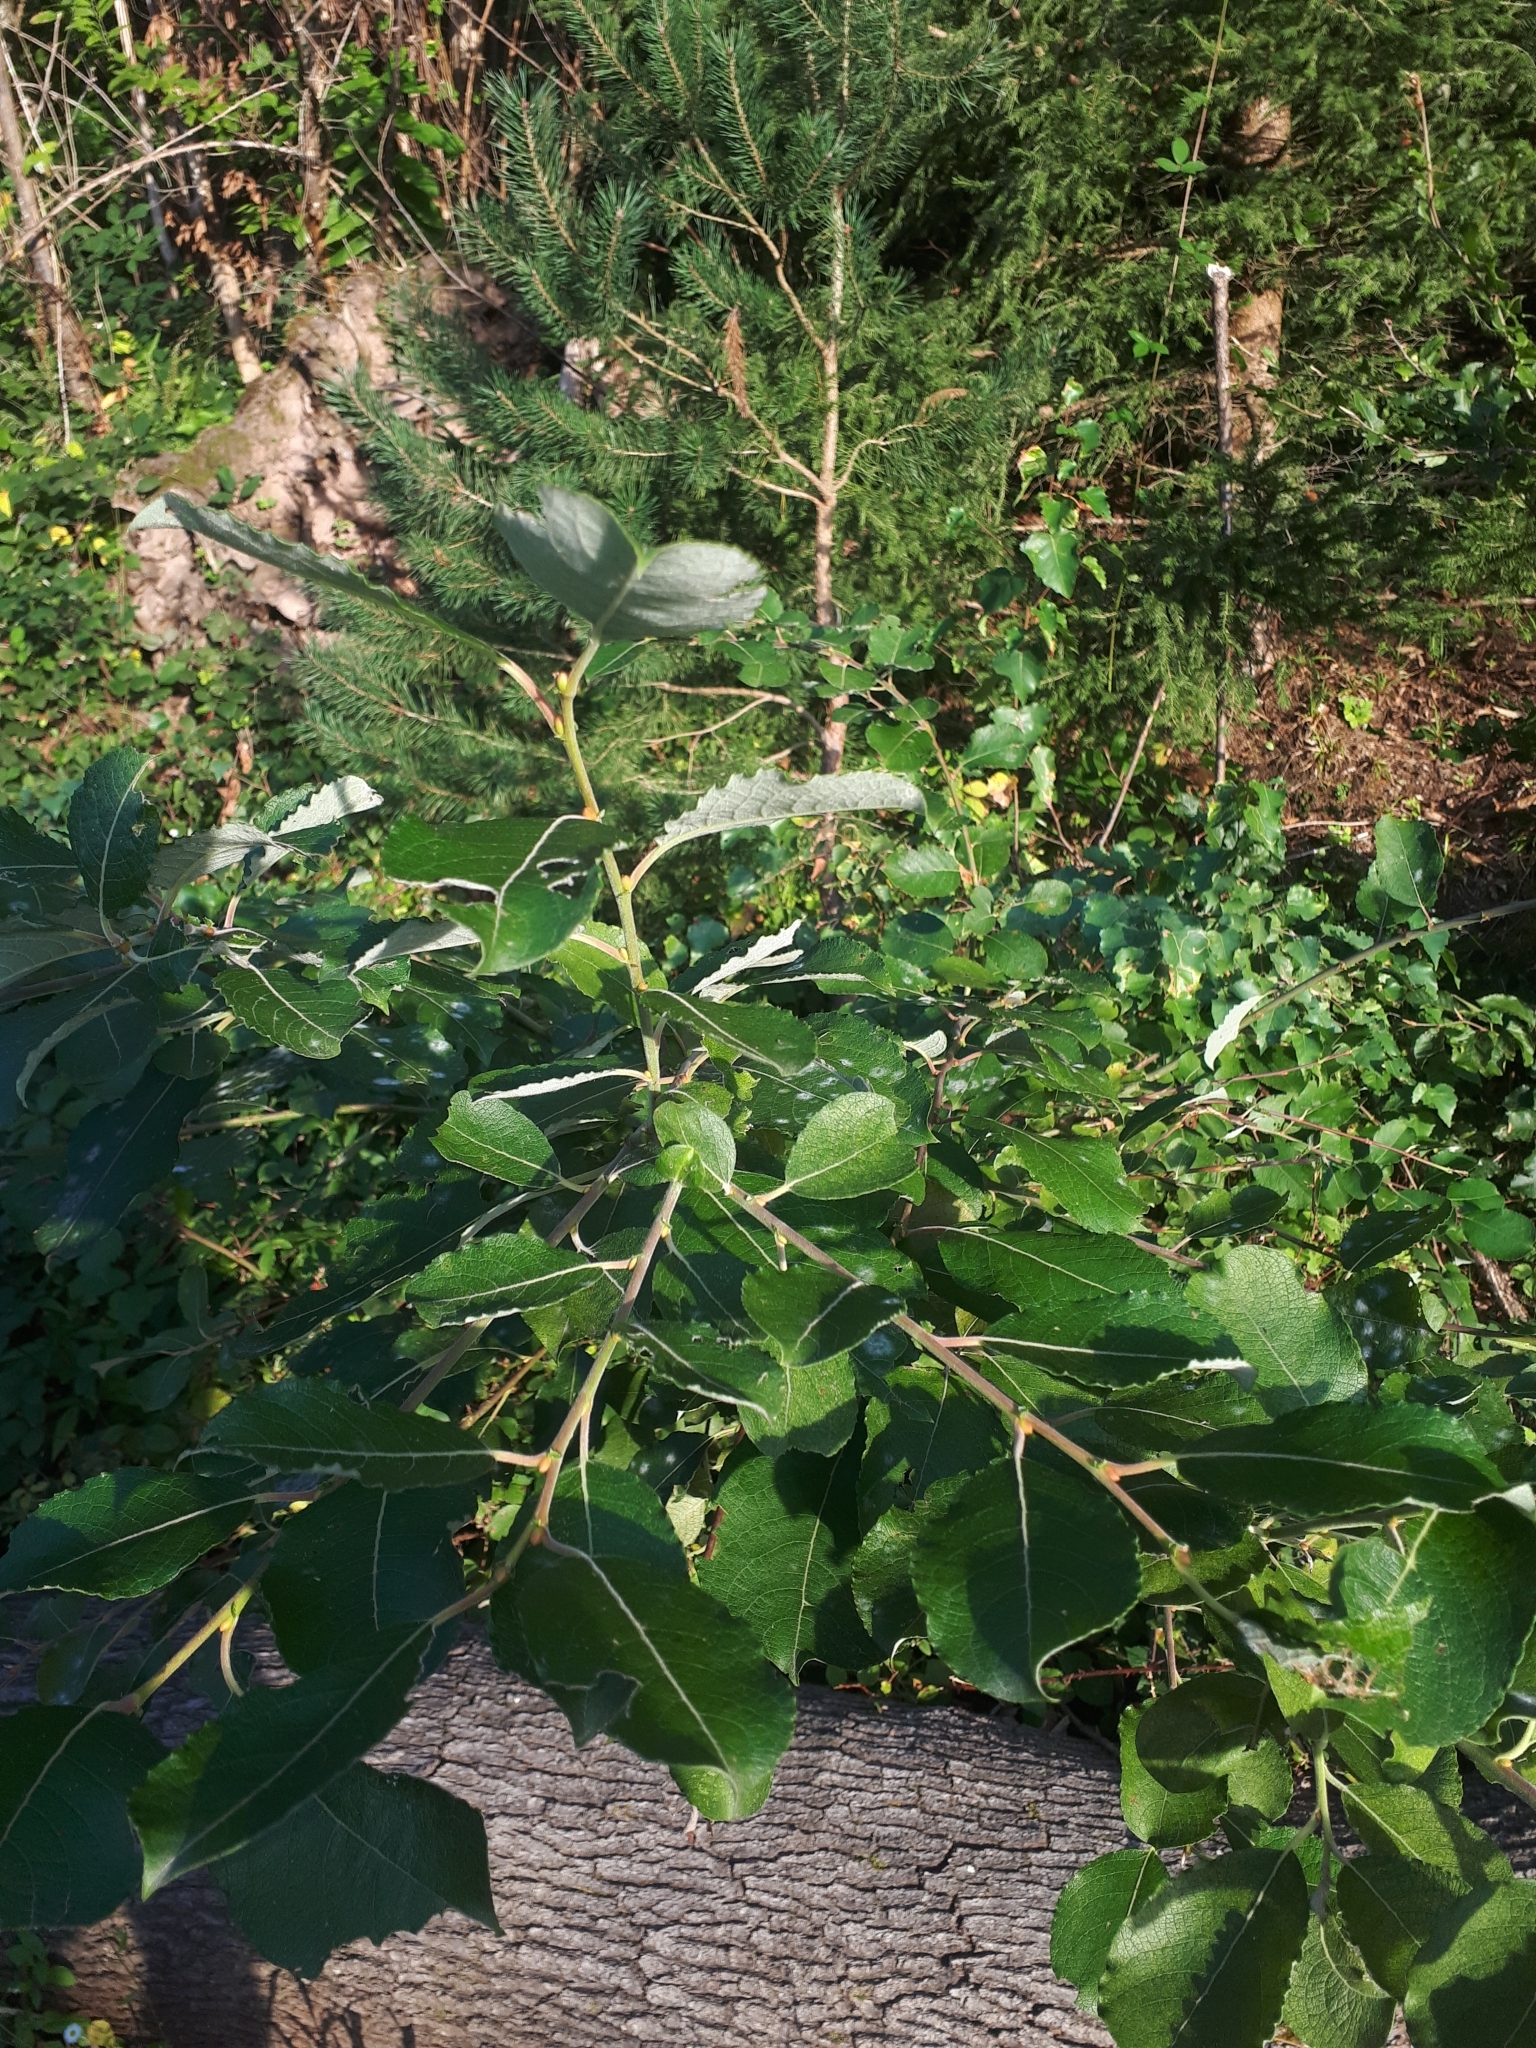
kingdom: Plantae
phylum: Tracheophyta
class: Magnoliopsida
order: Malpighiales
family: Salicaceae
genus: Salix
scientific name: Salix caprea
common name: Goat willow
